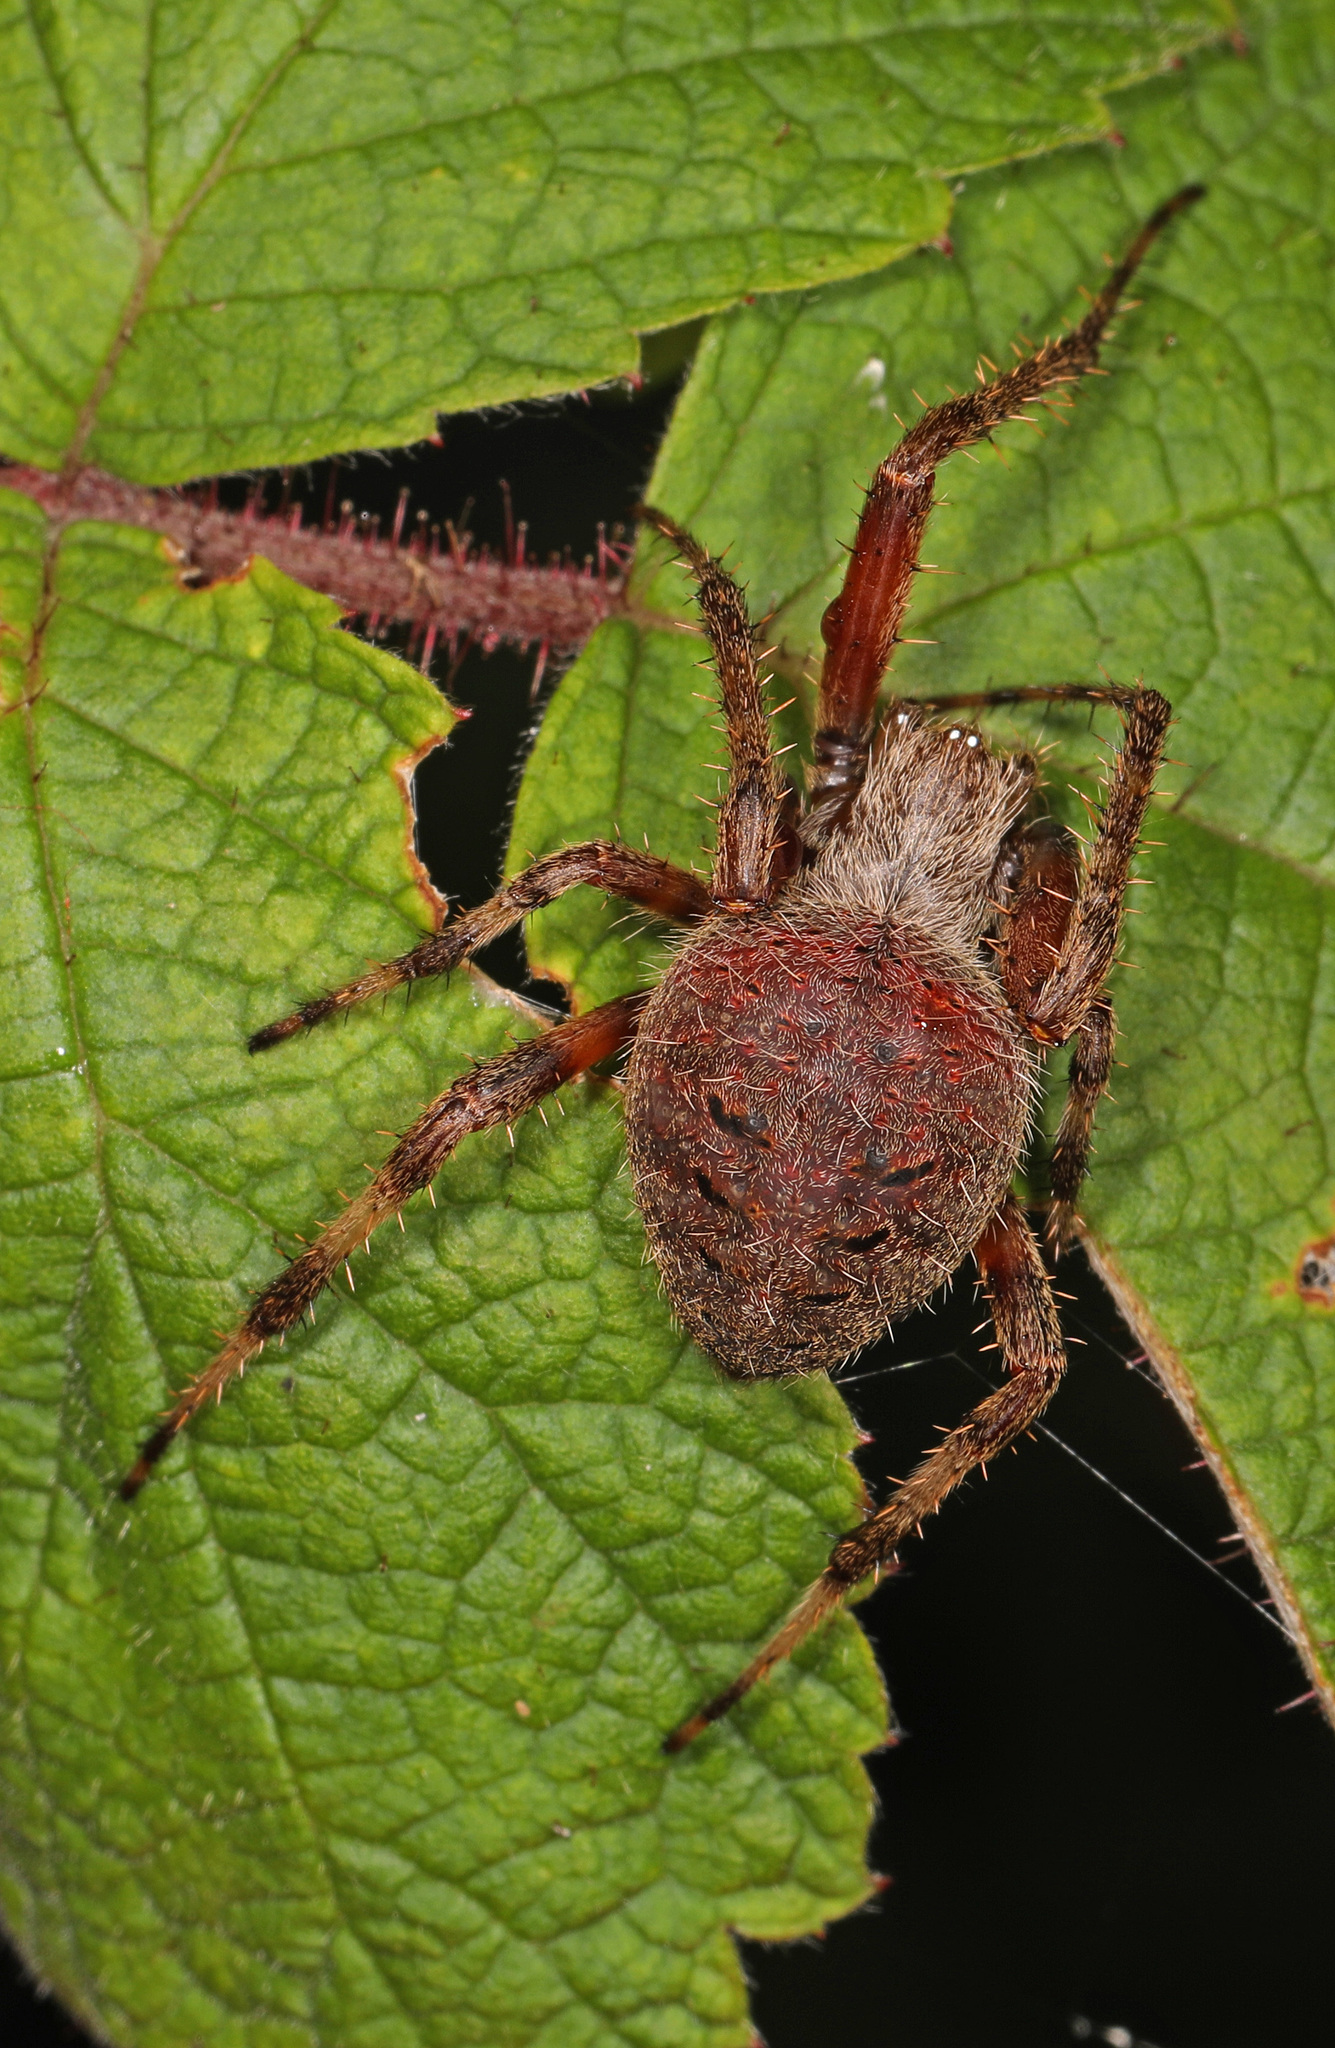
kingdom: Animalia
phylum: Arthropoda
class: Arachnida
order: Araneae
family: Araneidae
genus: Neoscona
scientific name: Neoscona crucifera
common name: Spotted orbweaver
